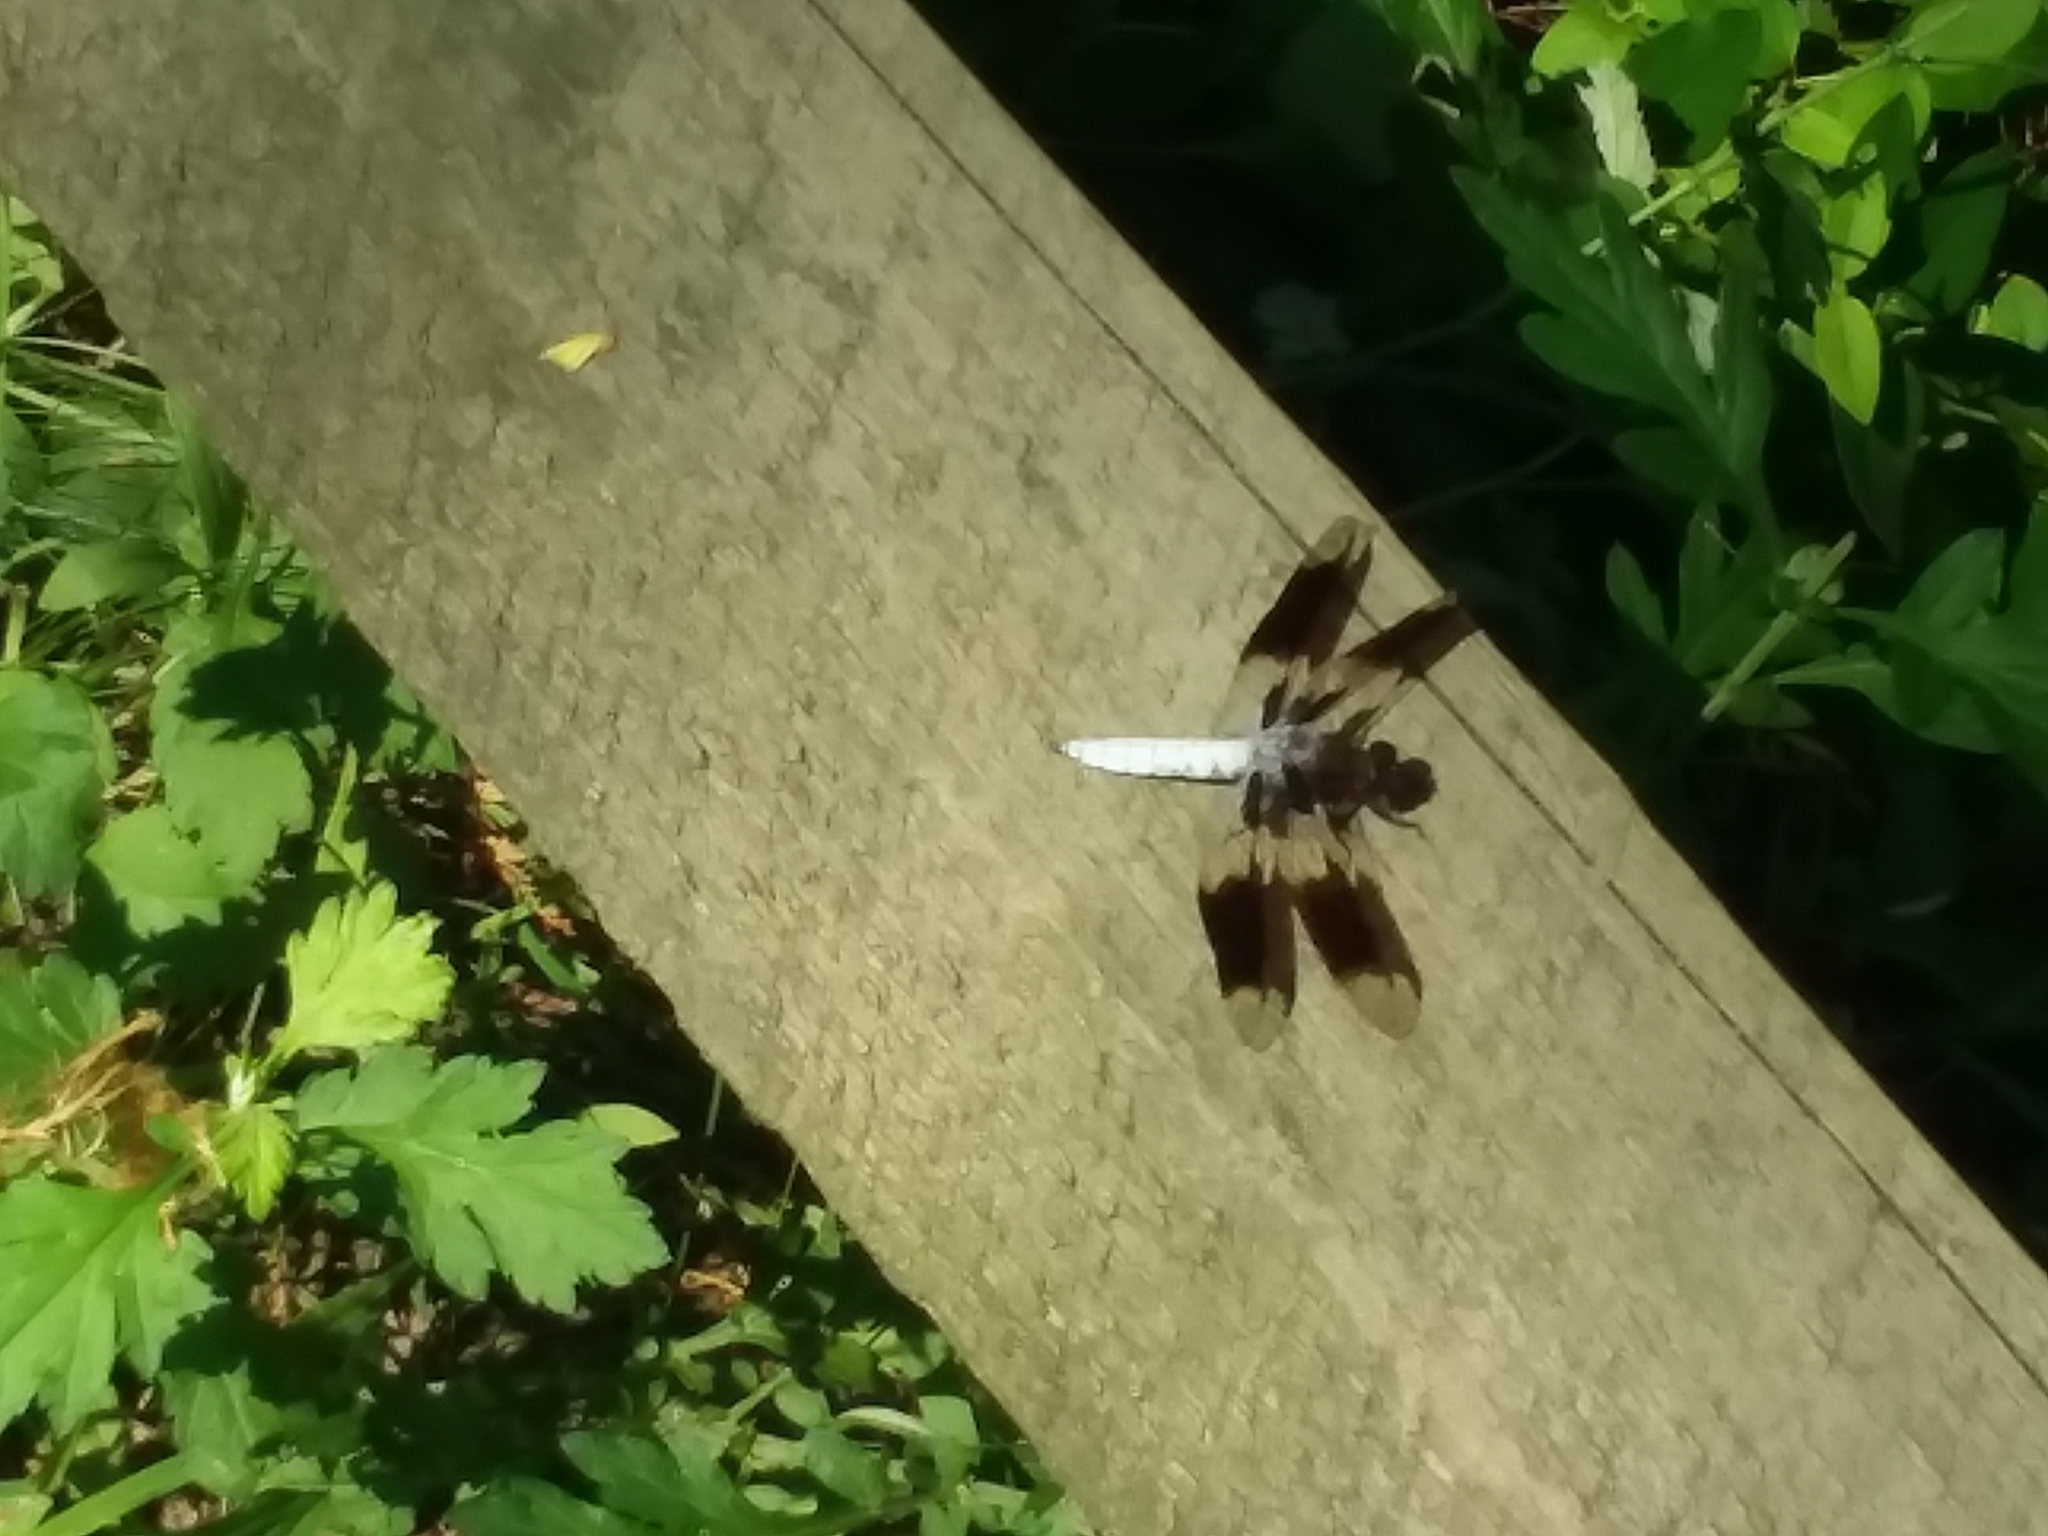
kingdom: Animalia
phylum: Arthropoda
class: Insecta
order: Odonata
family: Libellulidae
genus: Plathemis
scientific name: Plathemis lydia
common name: Common whitetail
